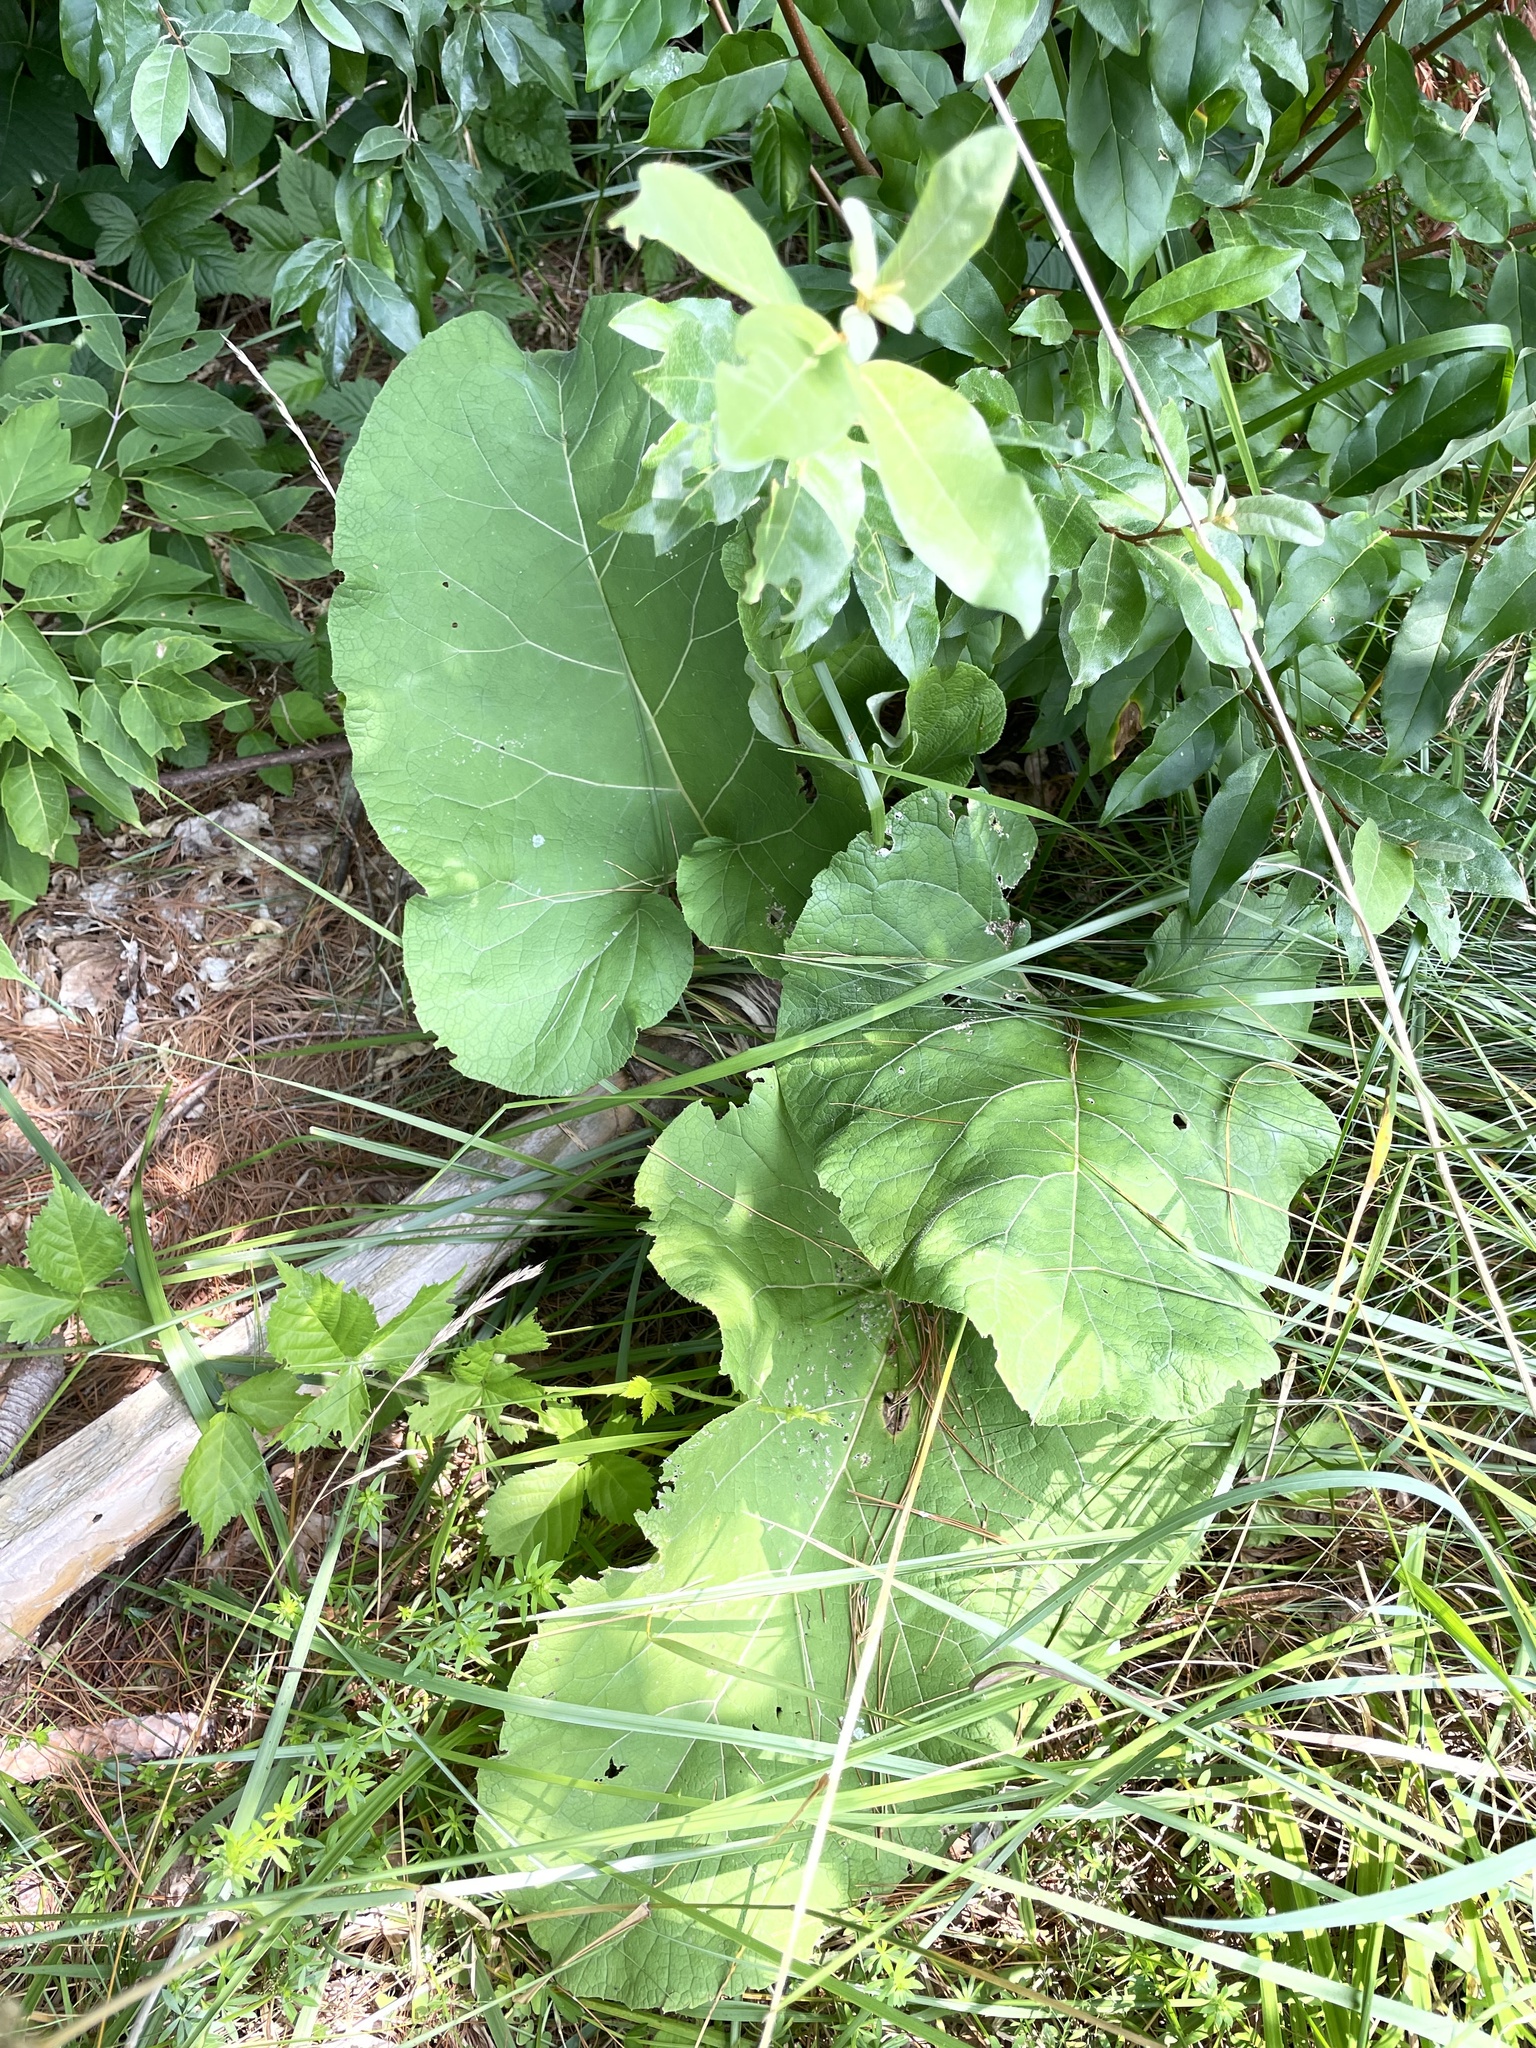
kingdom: Plantae
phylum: Tracheophyta
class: Magnoliopsida
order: Asterales
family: Asteraceae
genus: Arctium
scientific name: Arctium
